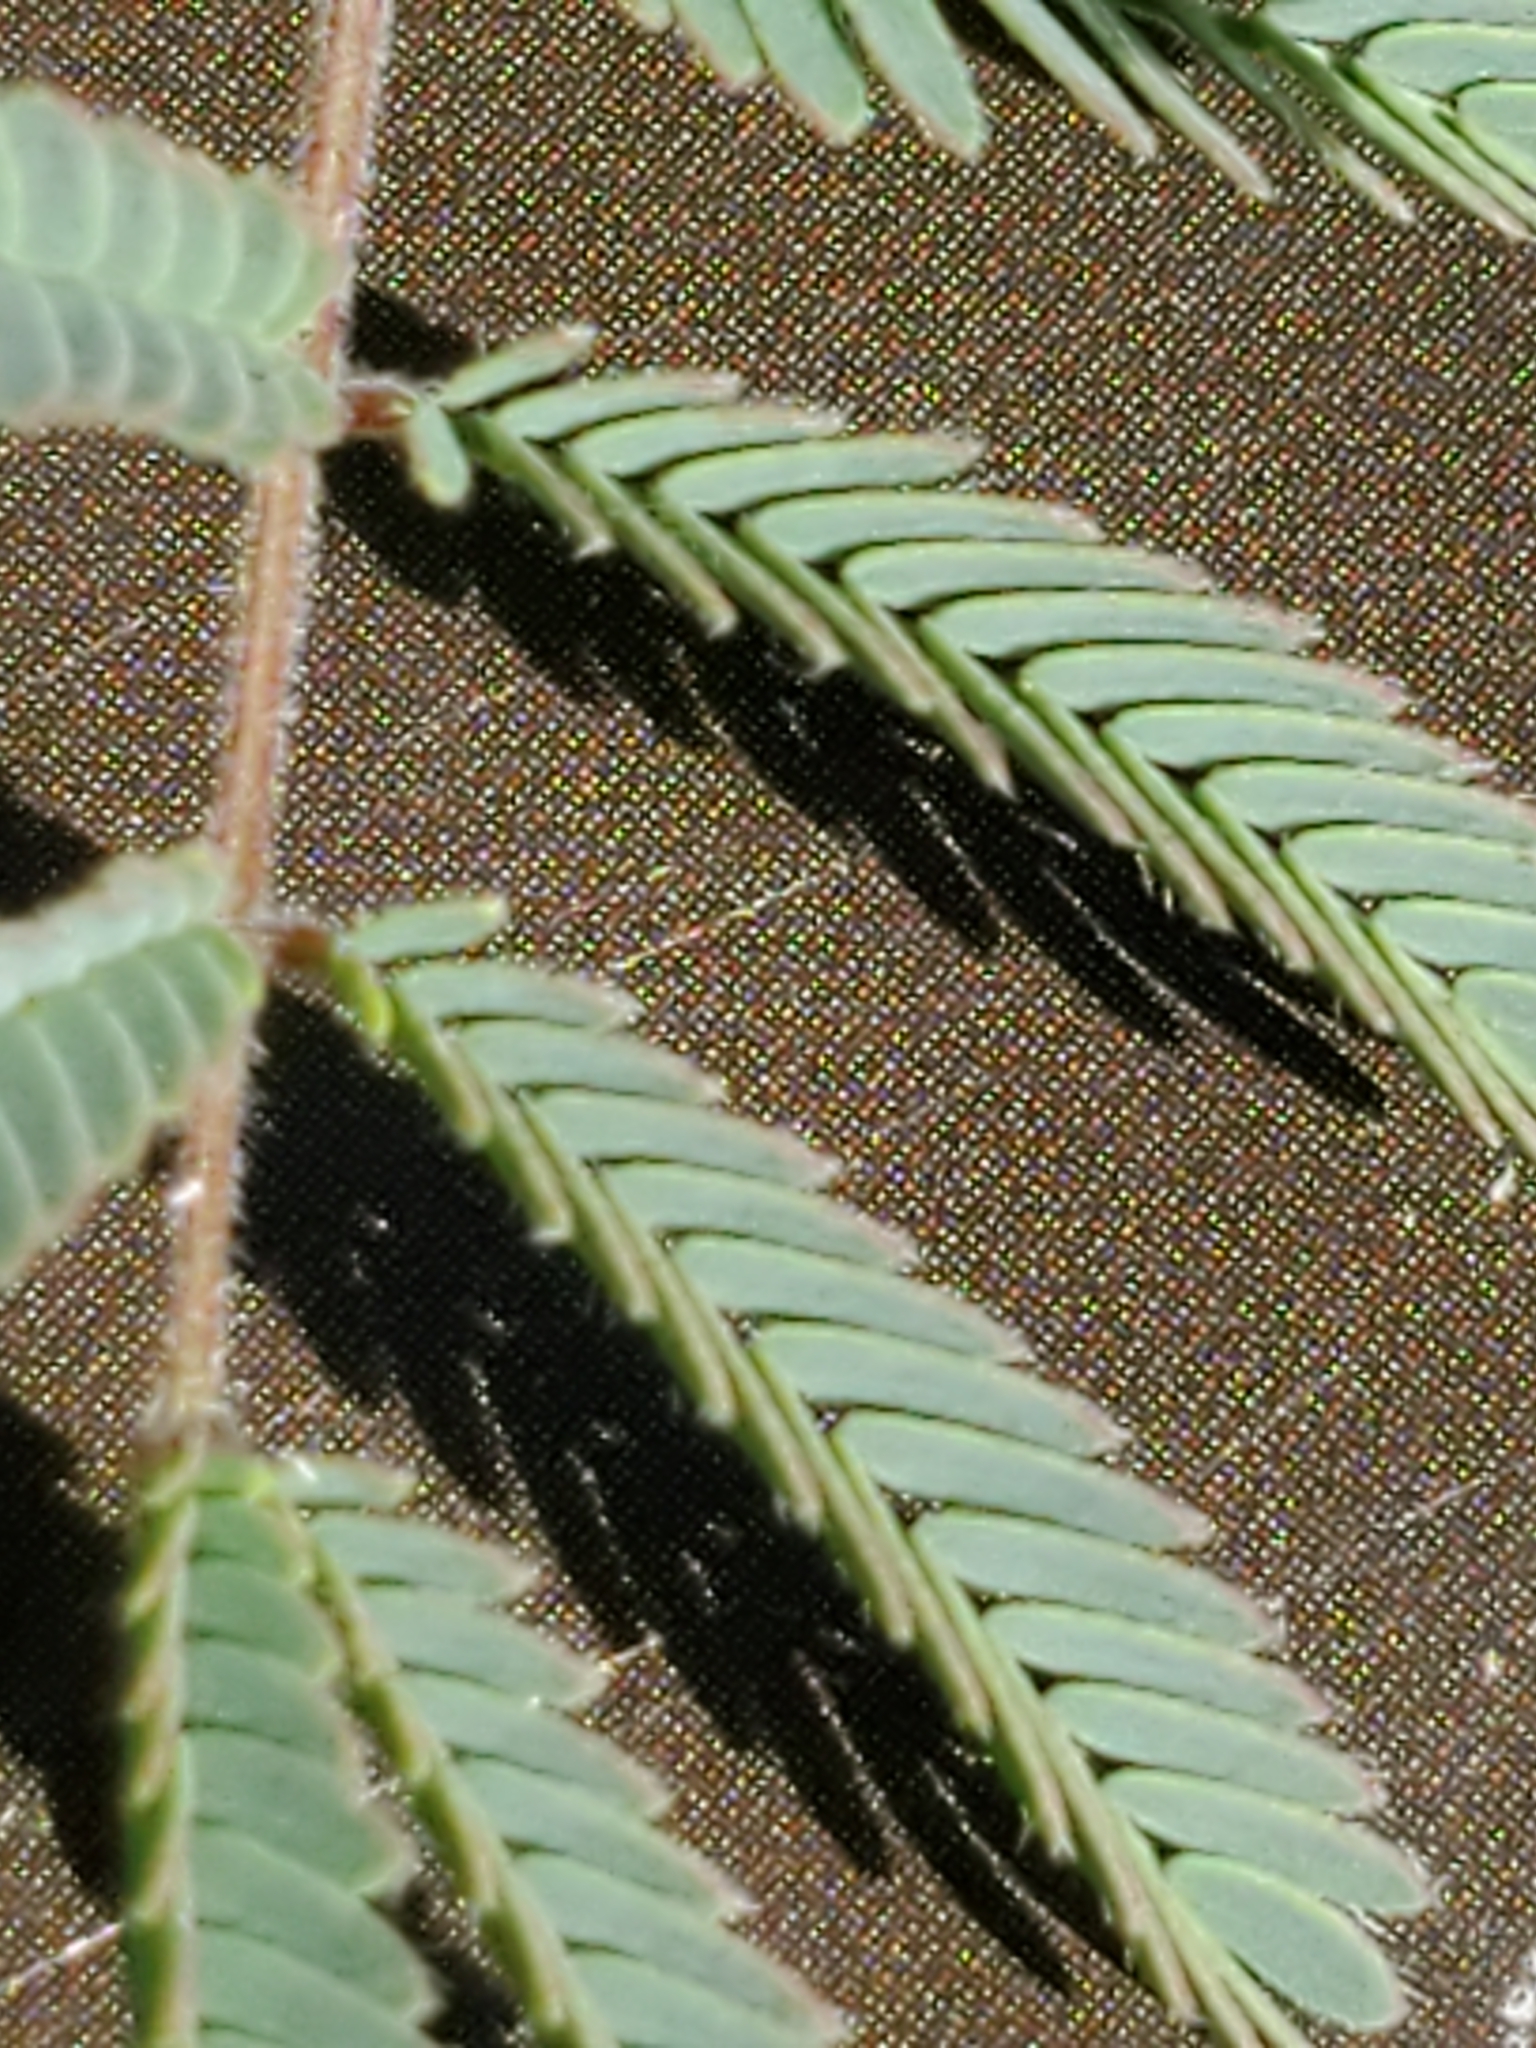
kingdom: Plantae
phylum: Tracheophyta
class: Magnoliopsida
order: Fabales
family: Fabaceae
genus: Desmanthus
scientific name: Desmanthus velutinus
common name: Velvet bundle-flower
